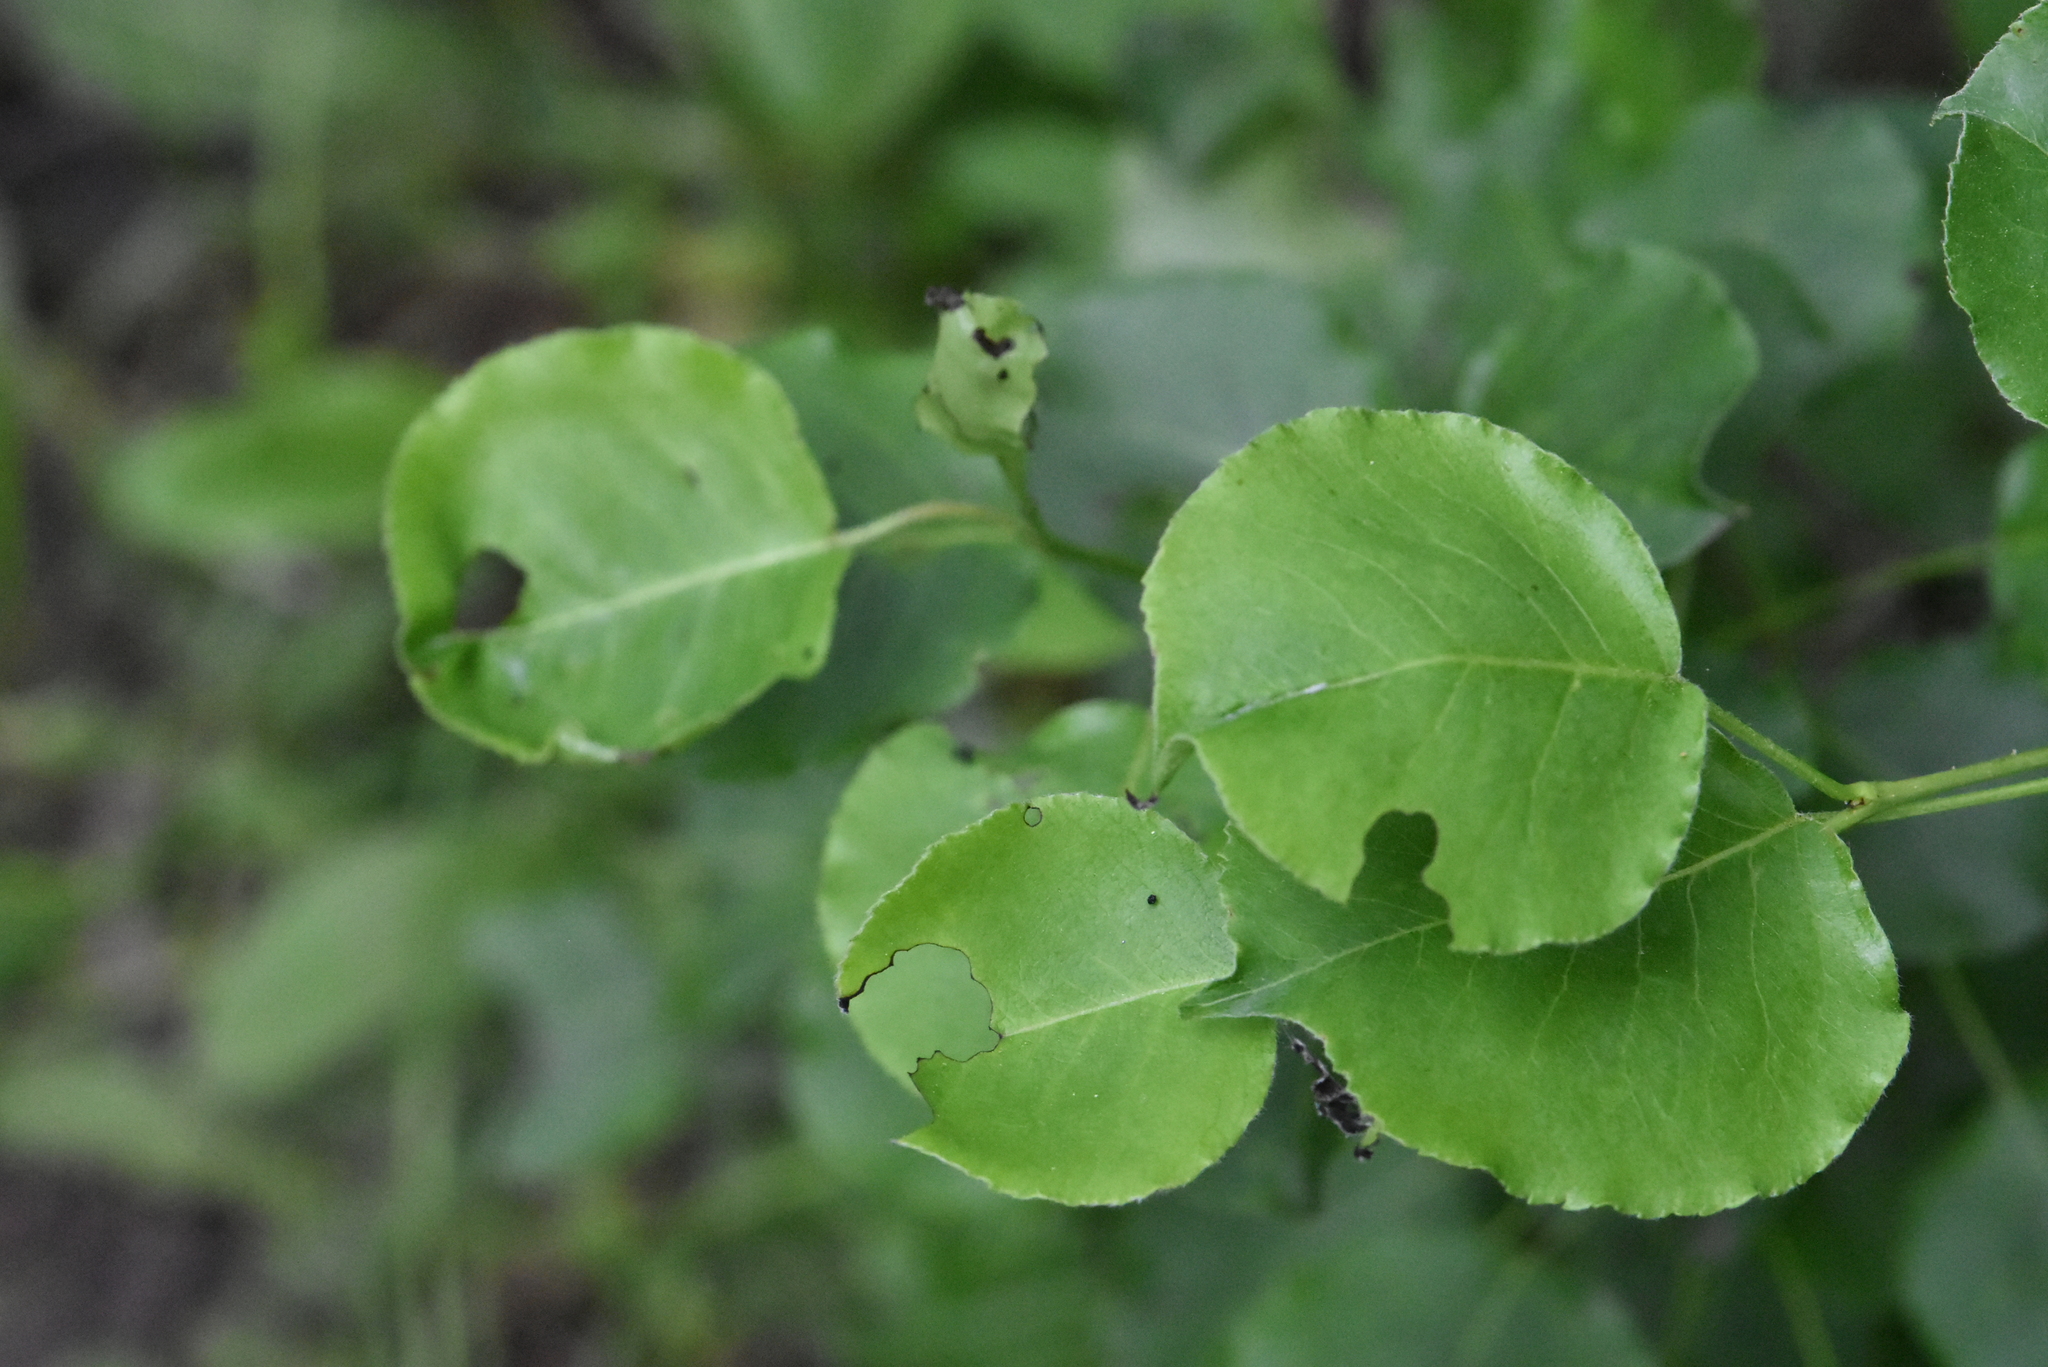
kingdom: Plantae
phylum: Tracheophyta
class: Magnoliopsida
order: Rosales
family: Rosaceae
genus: Pyrus
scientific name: Pyrus communis
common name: Pear
